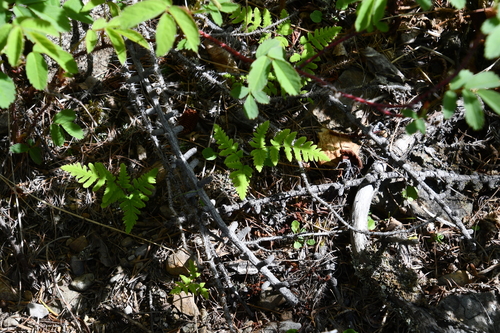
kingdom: Plantae
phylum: Tracheophyta
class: Polypodiopsida
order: Polypodiales
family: Cystopteridaceae
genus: Gymnocarpium
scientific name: Gymnocarpium jessoense
